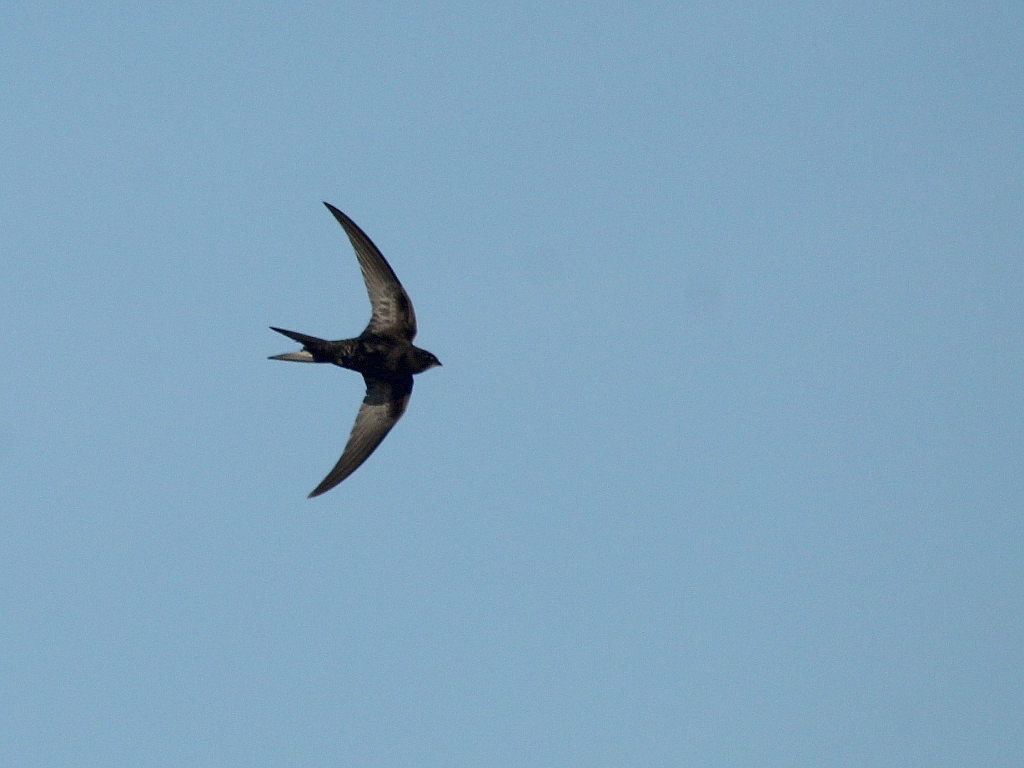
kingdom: Animalia
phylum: Chordata
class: Aves
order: Apodiformes
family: Apodidae
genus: Apus
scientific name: Apus apus
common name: Common swift
